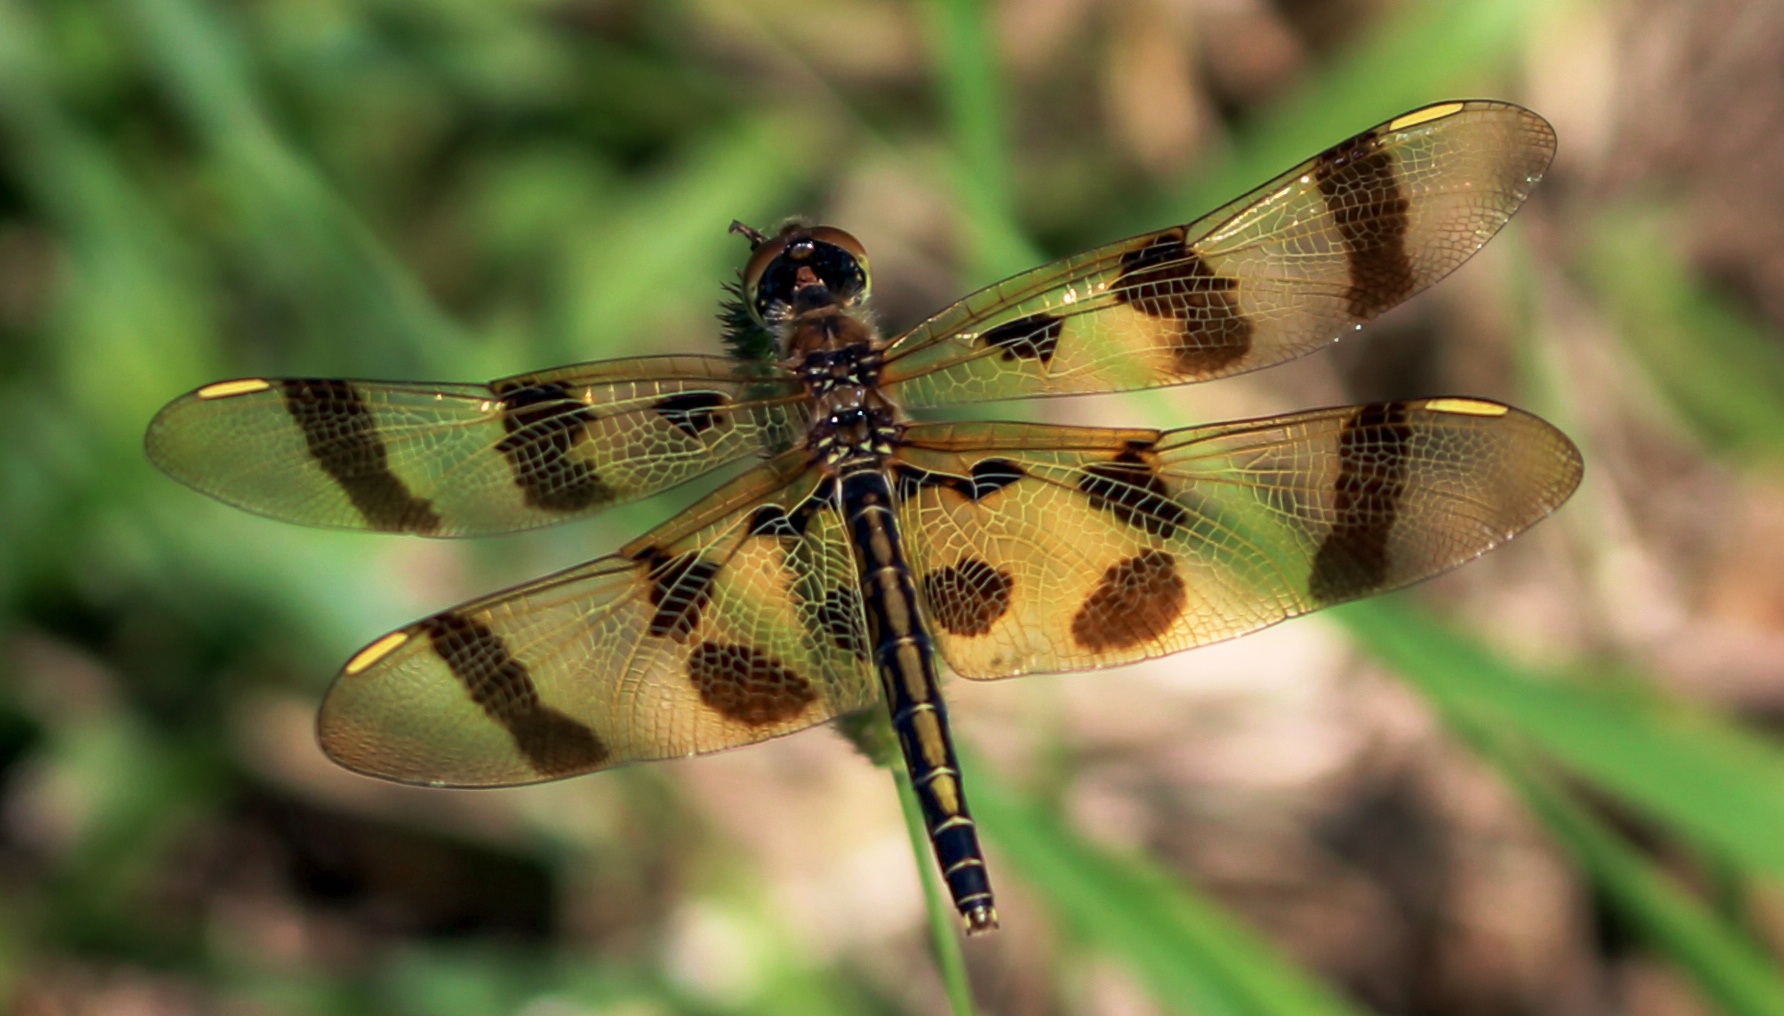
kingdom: Animalia
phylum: Arthropoda
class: Insecta
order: Odonata
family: Libellulidae
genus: Celithemis
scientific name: Celithemis eponina
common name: Halloween pennant
